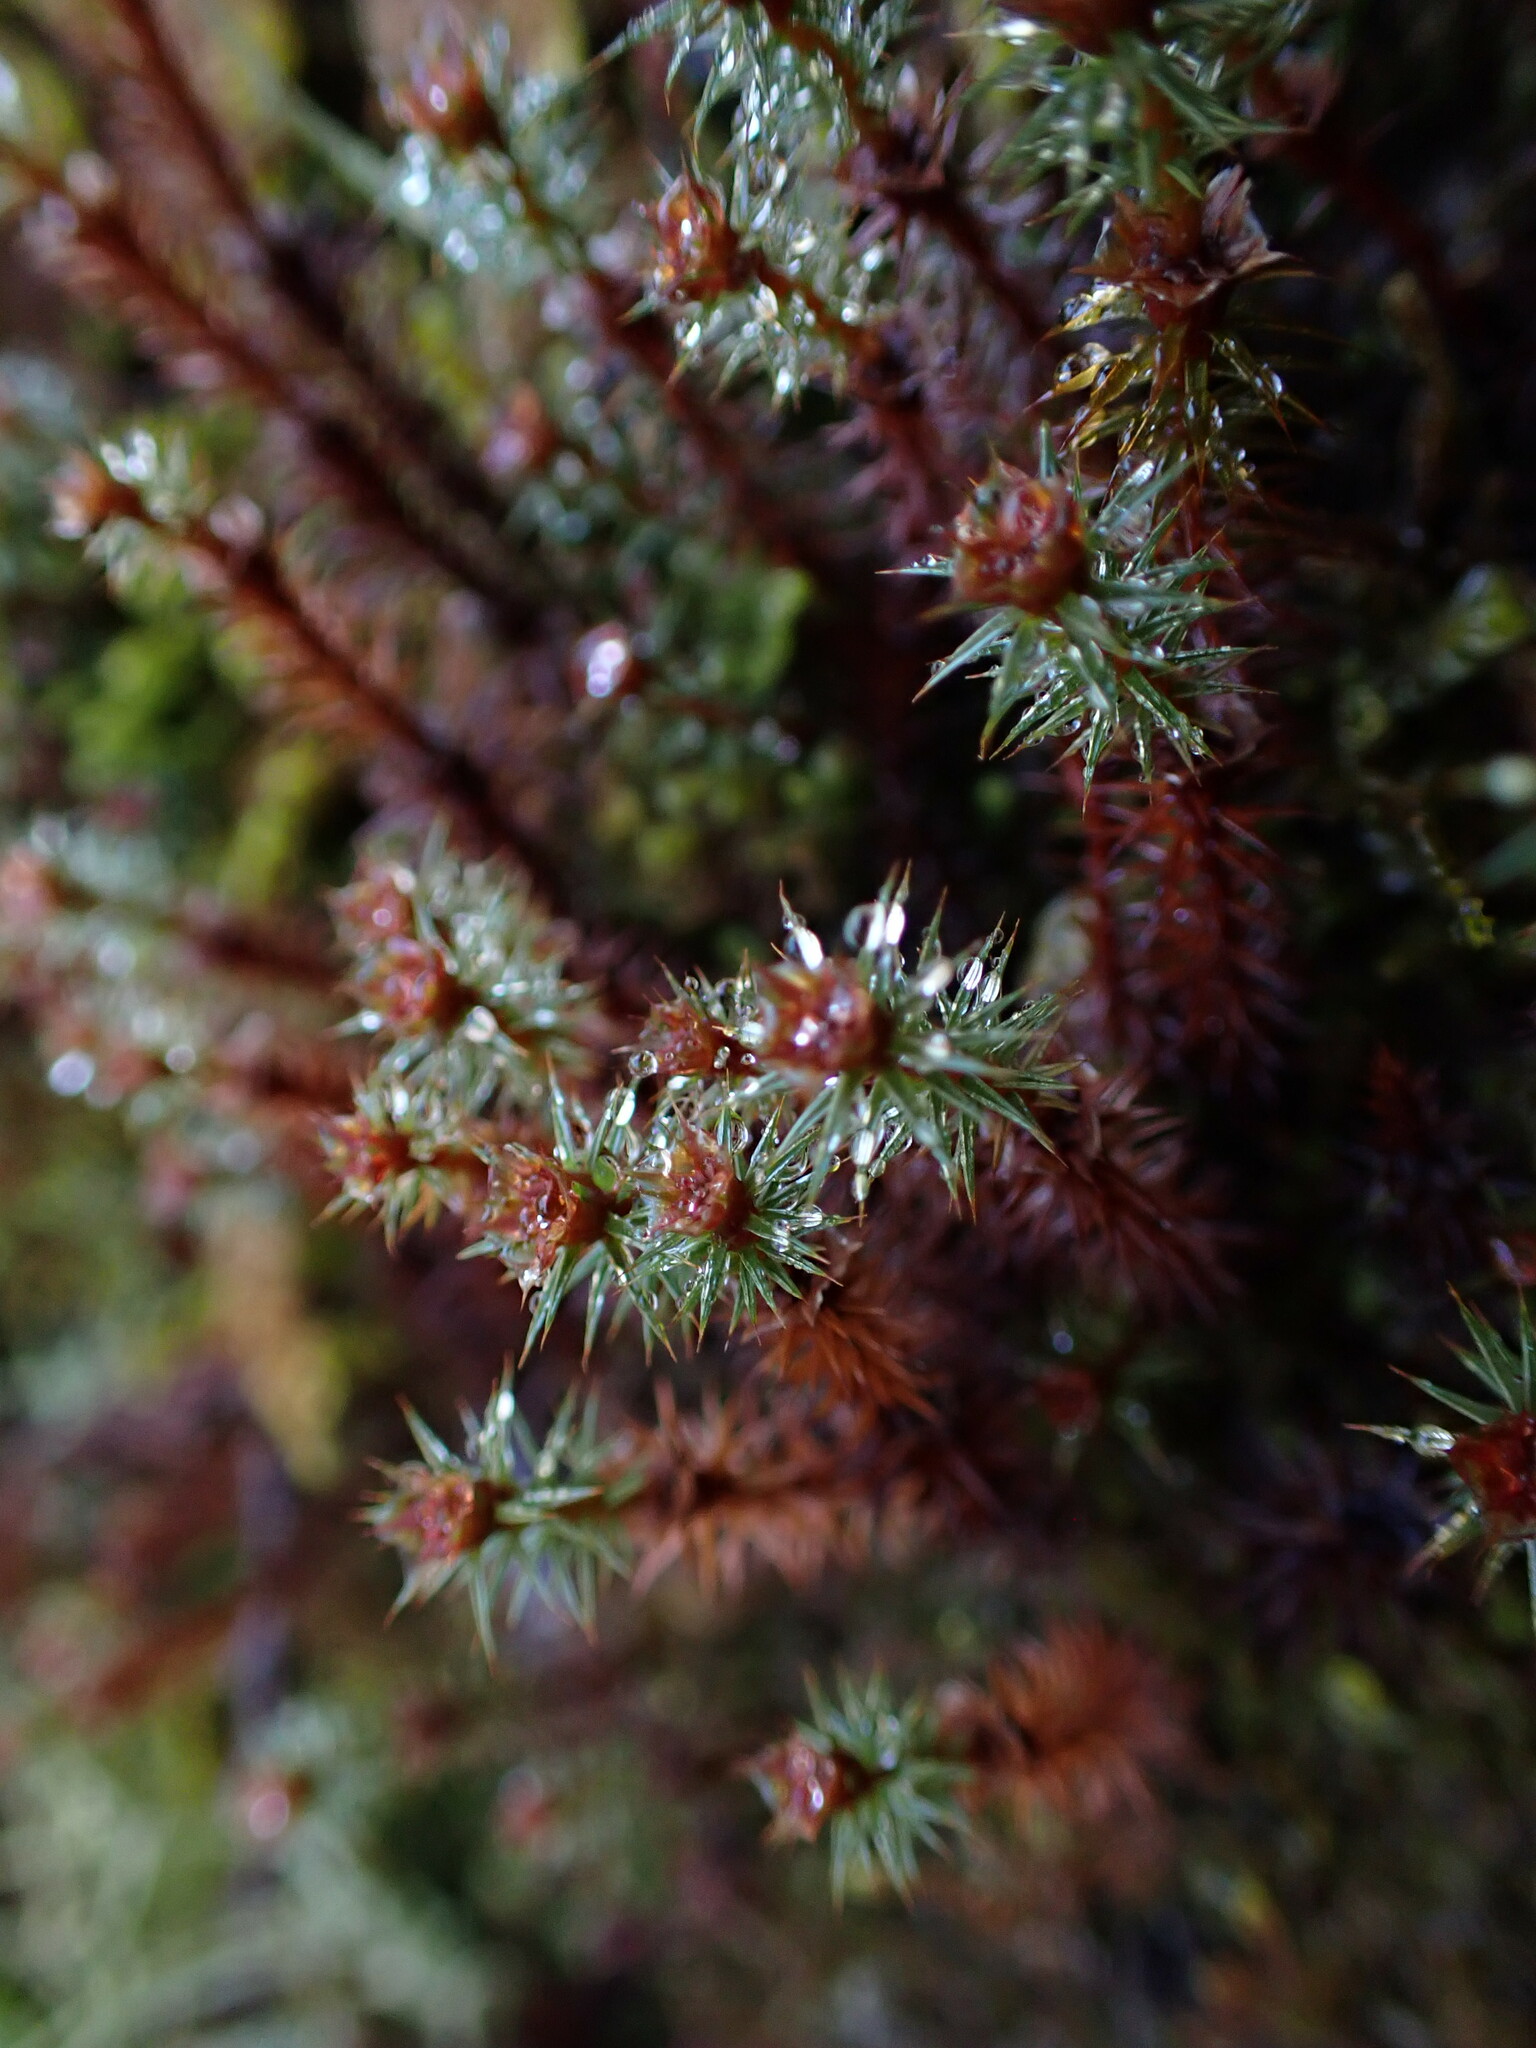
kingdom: Plantae
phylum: Bryophyta
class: Polytrichopsida
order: Polytrichales
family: Polytrichaceae
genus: Polytrichum
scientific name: Polytrichum juniperinum
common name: Juniper haircap moss
